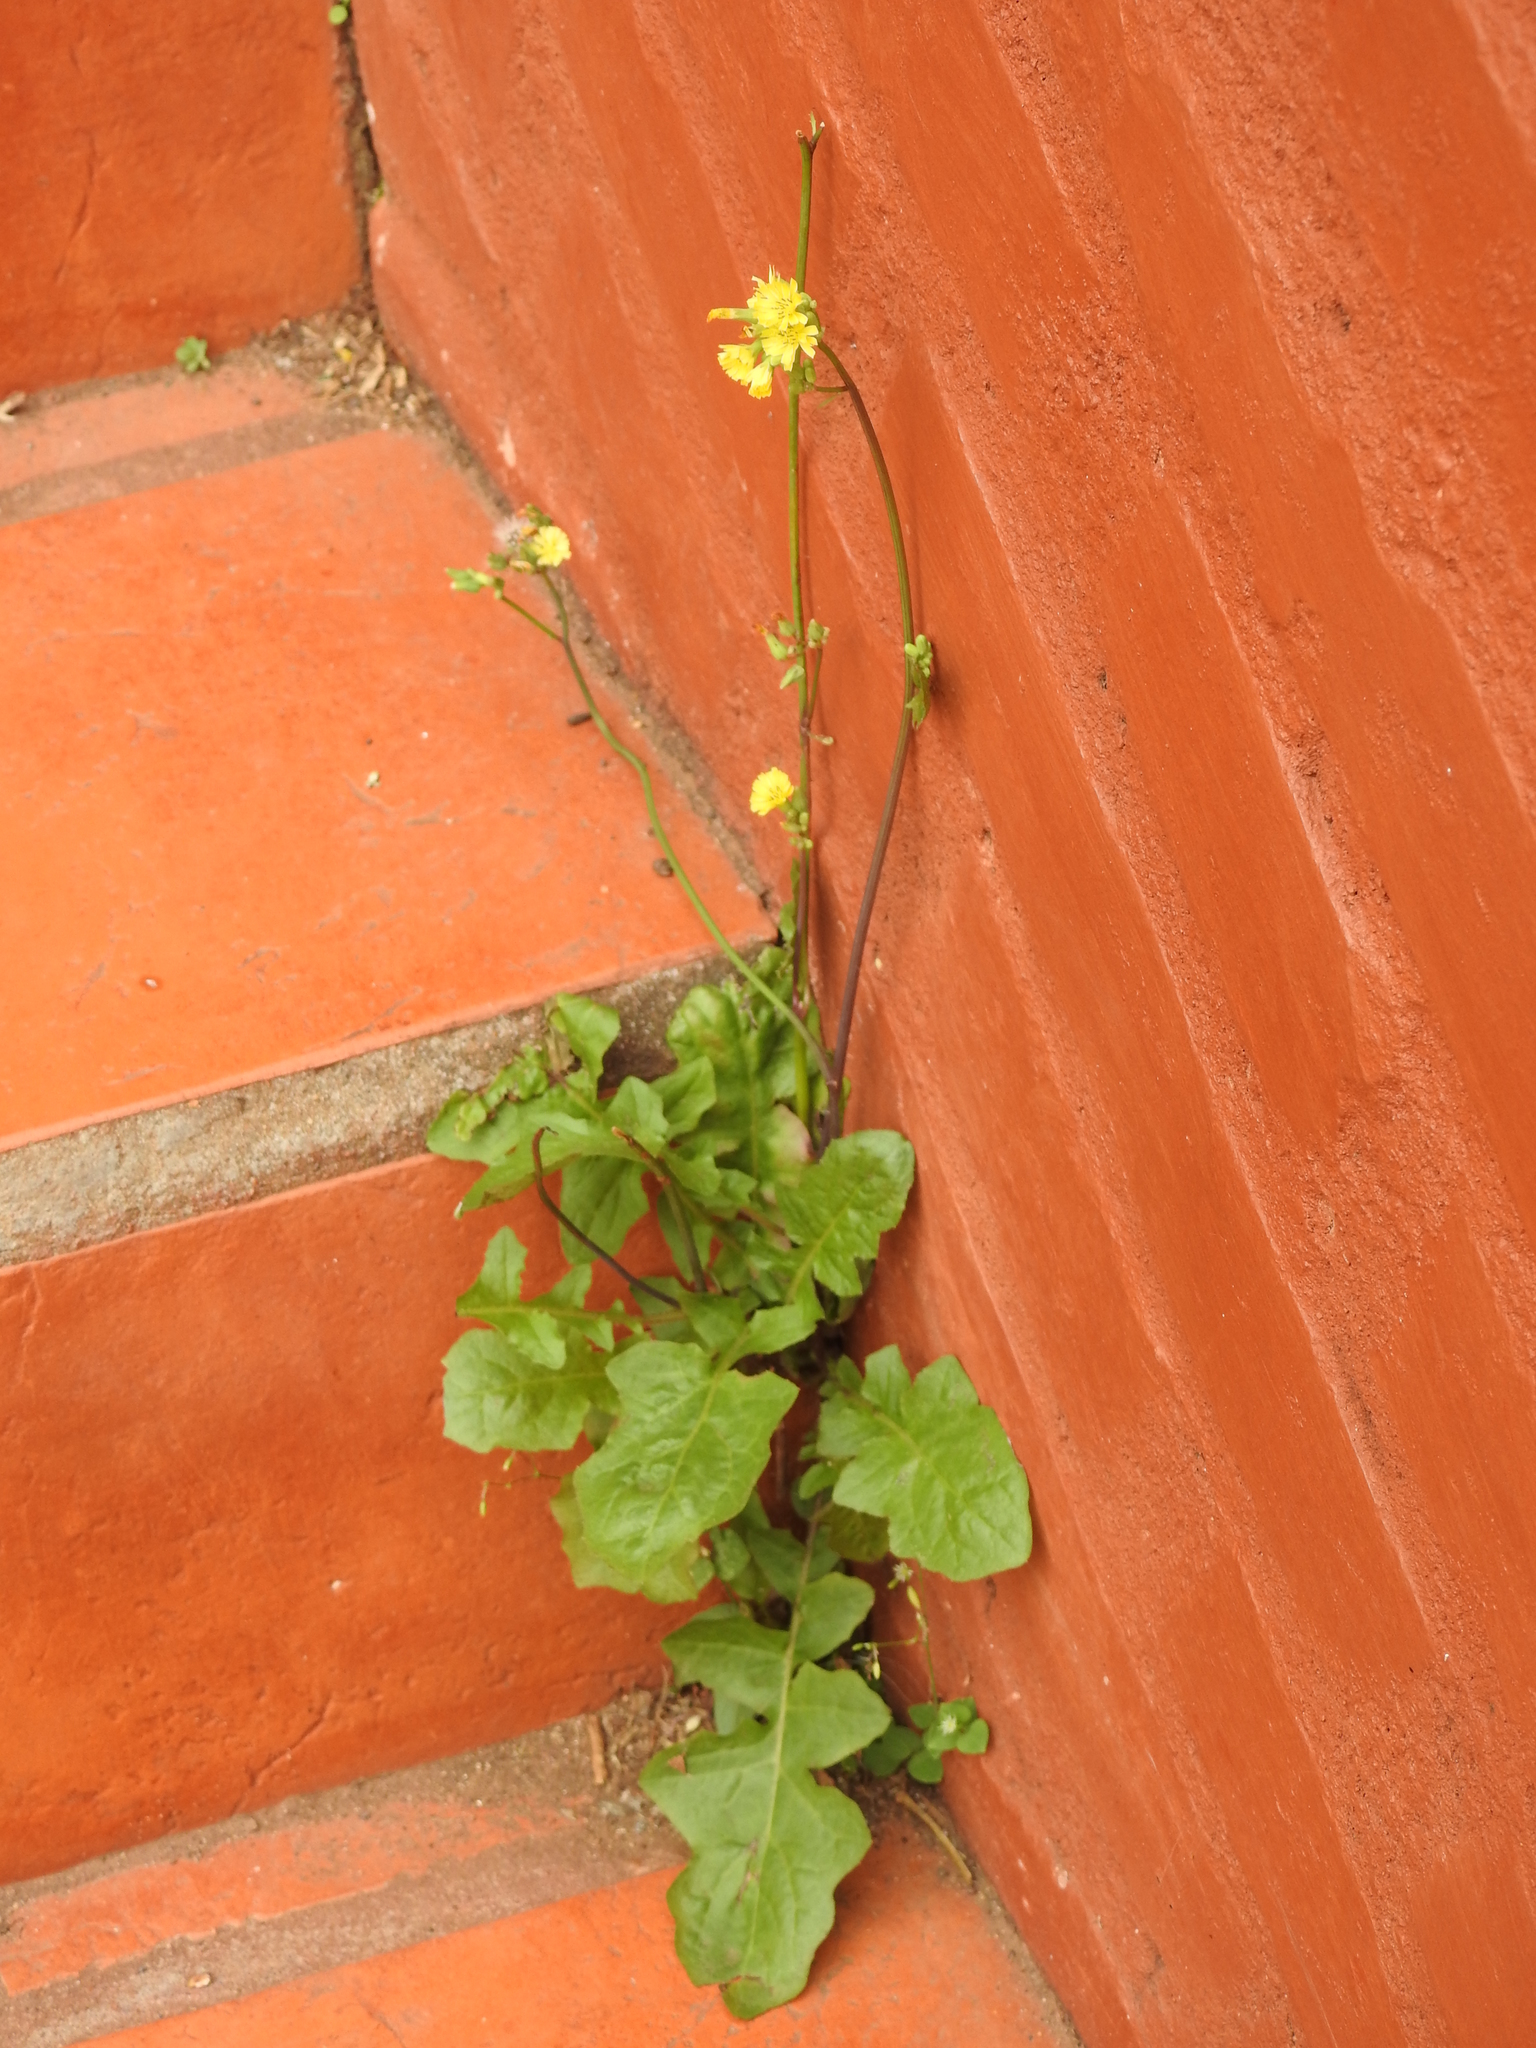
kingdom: Plantae
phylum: Tracheophyta
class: Magnoliopsida
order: Asterales
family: Asteraceae
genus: Youngia
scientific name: Youngia japonica
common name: Oriental false hawksbeard
